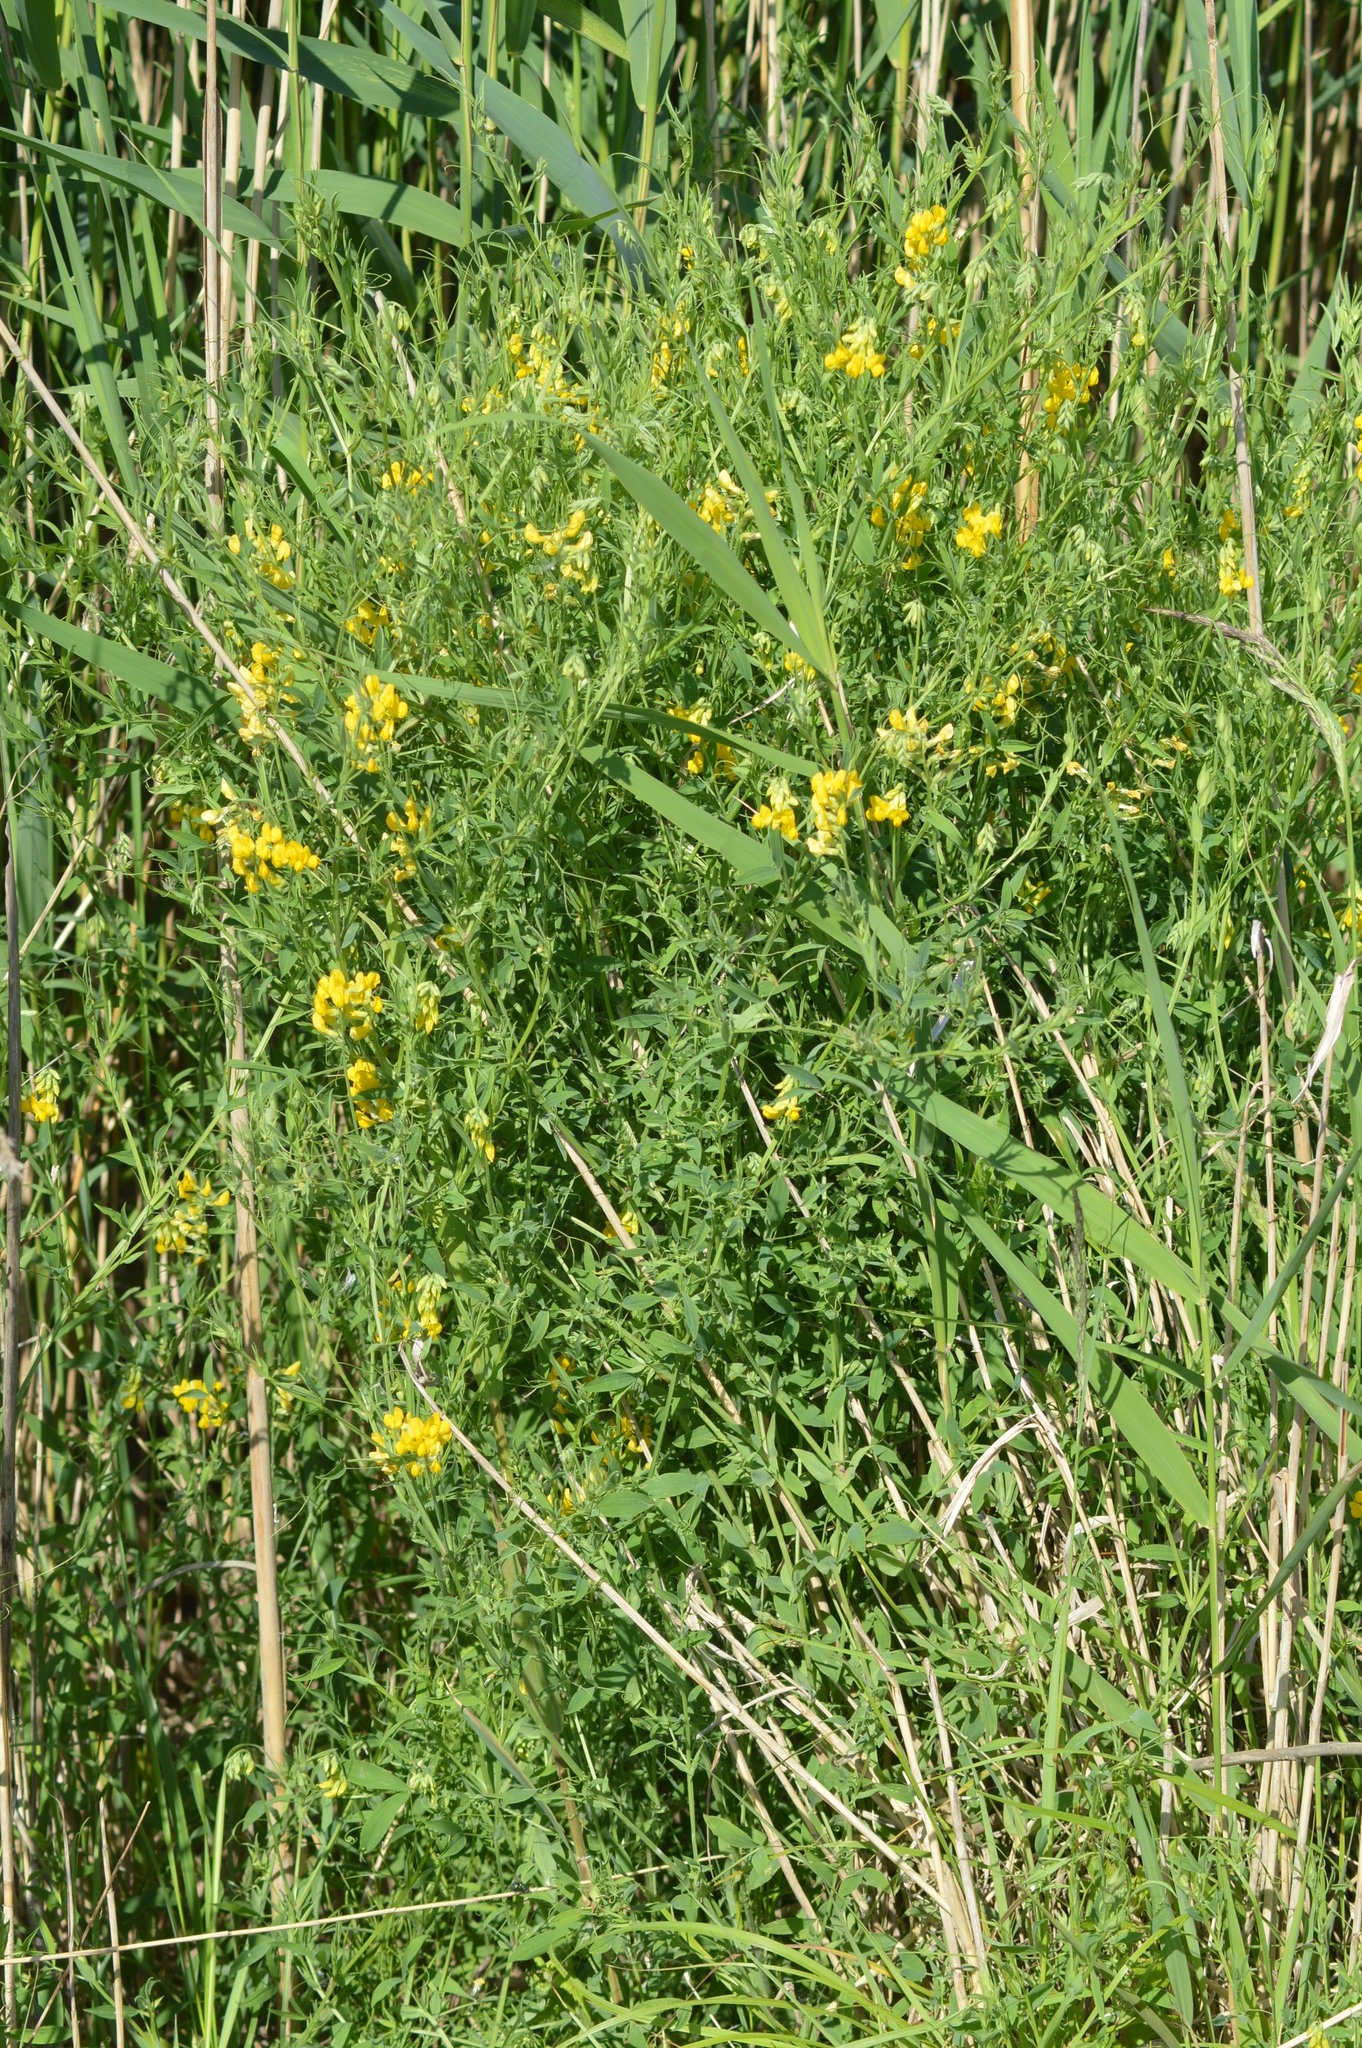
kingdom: Plantae
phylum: Tracheophyta
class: Magnoliopsida
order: Fabales
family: Fabaceae
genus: Lathyrus
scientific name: Lathyrus pratensis
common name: Meadow vetchling
